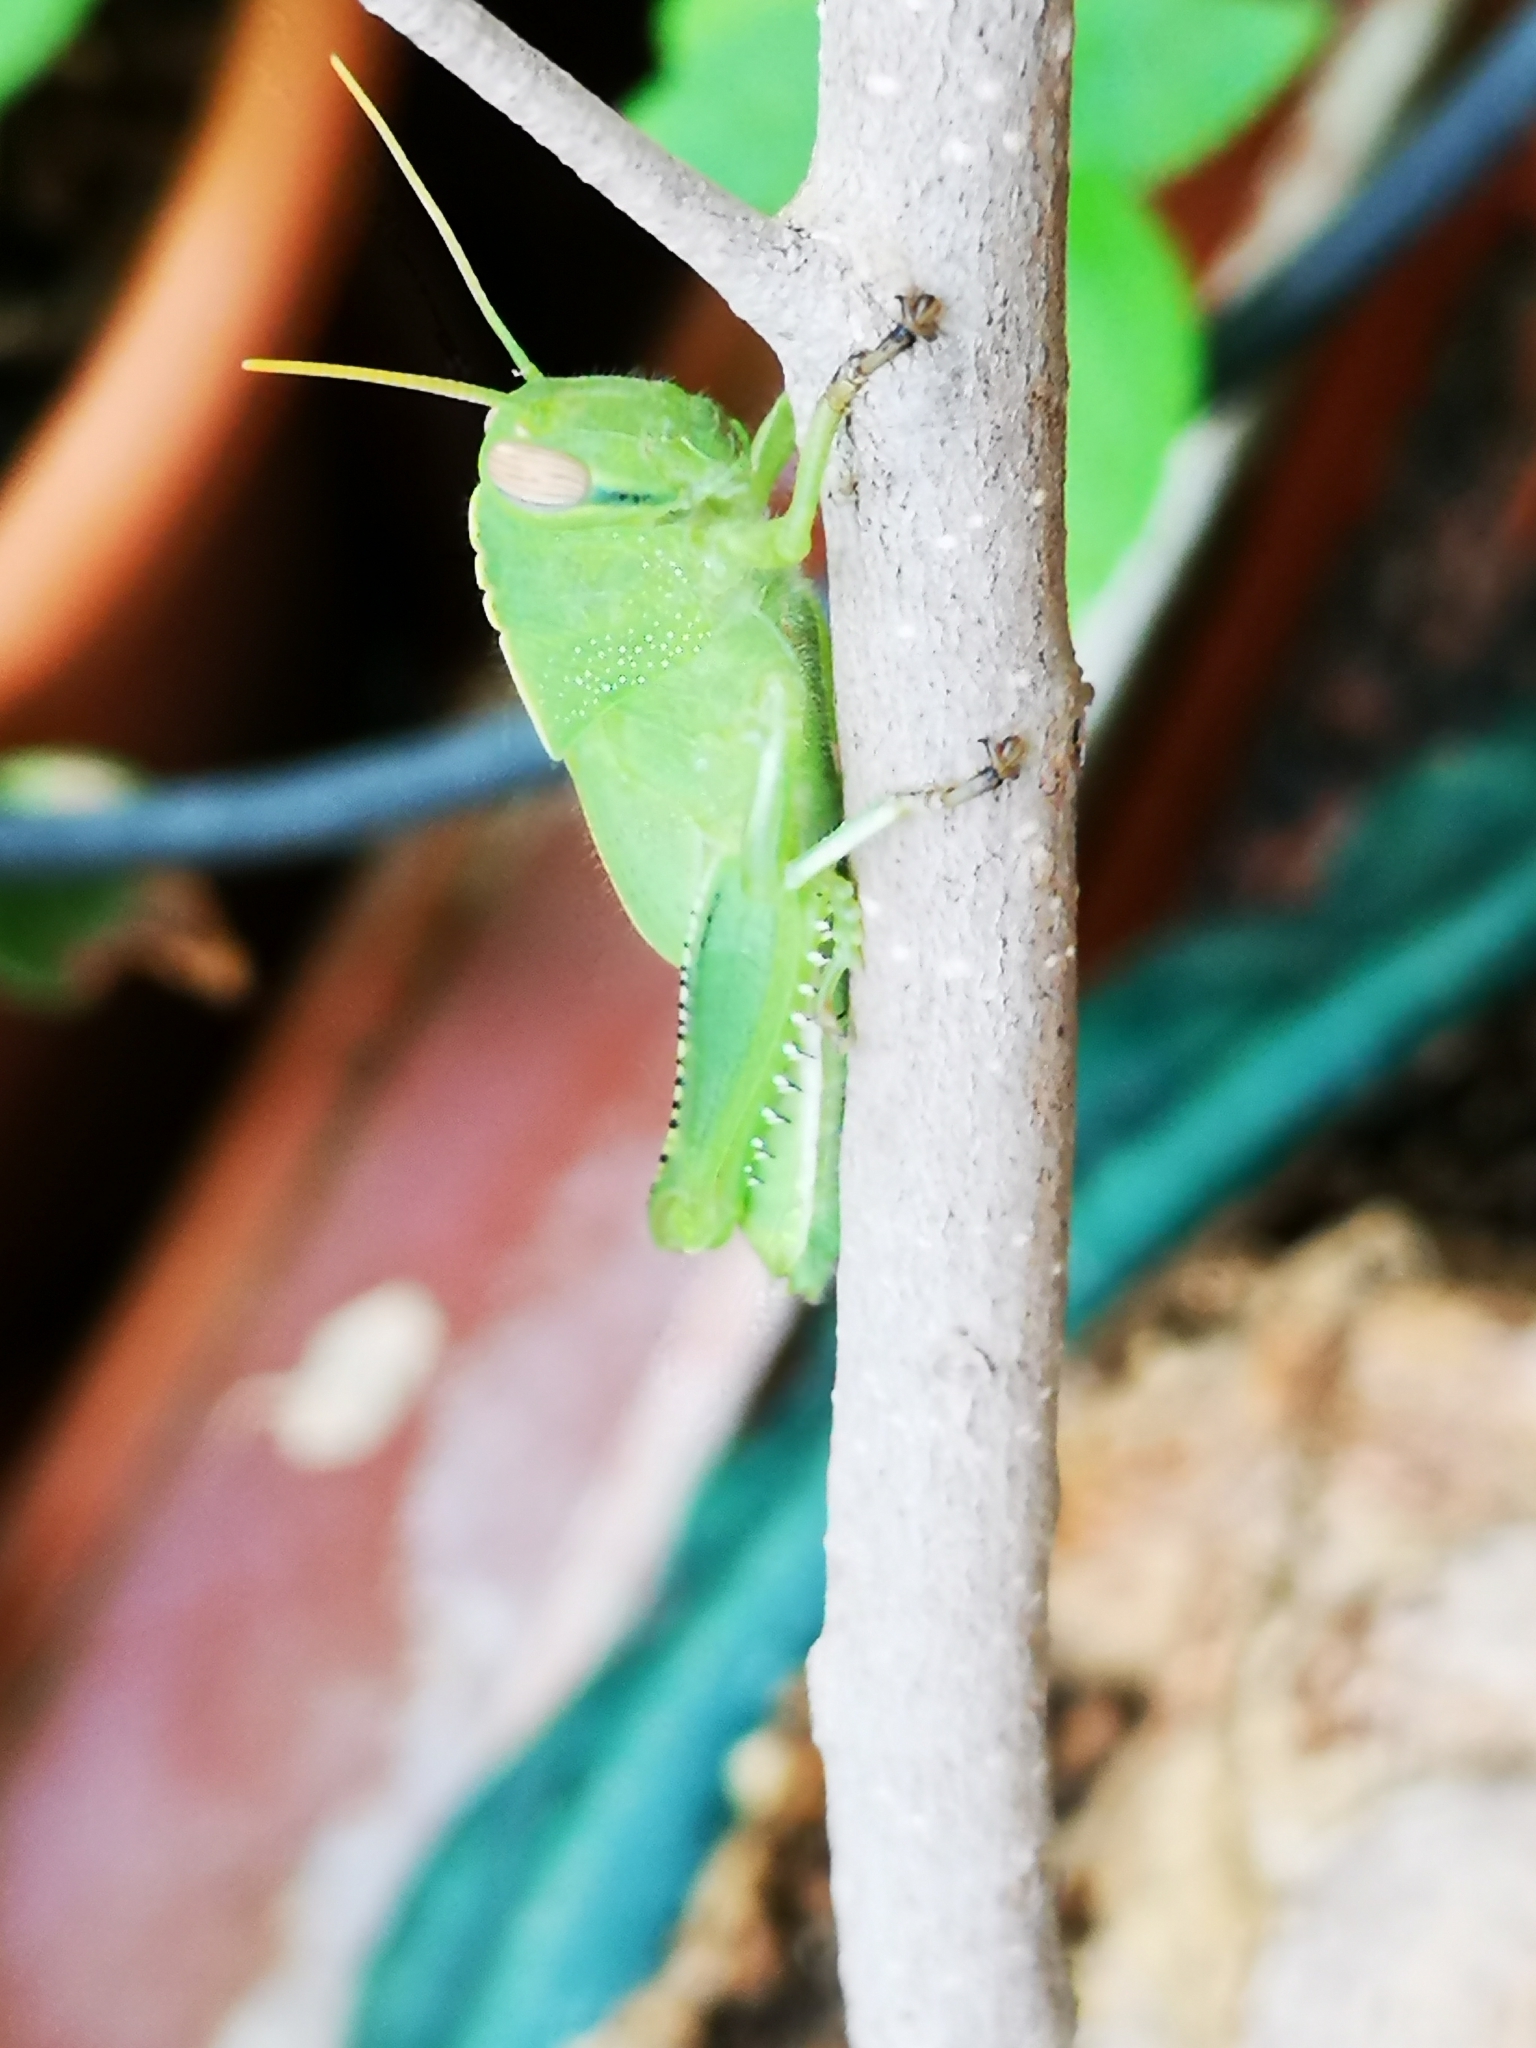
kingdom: Animalia
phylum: Arthropoda
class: Insecta
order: Orthoptera
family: Acrididae
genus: Anacridium
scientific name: Anacridium aegyptium
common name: Egyptian grasshopper
